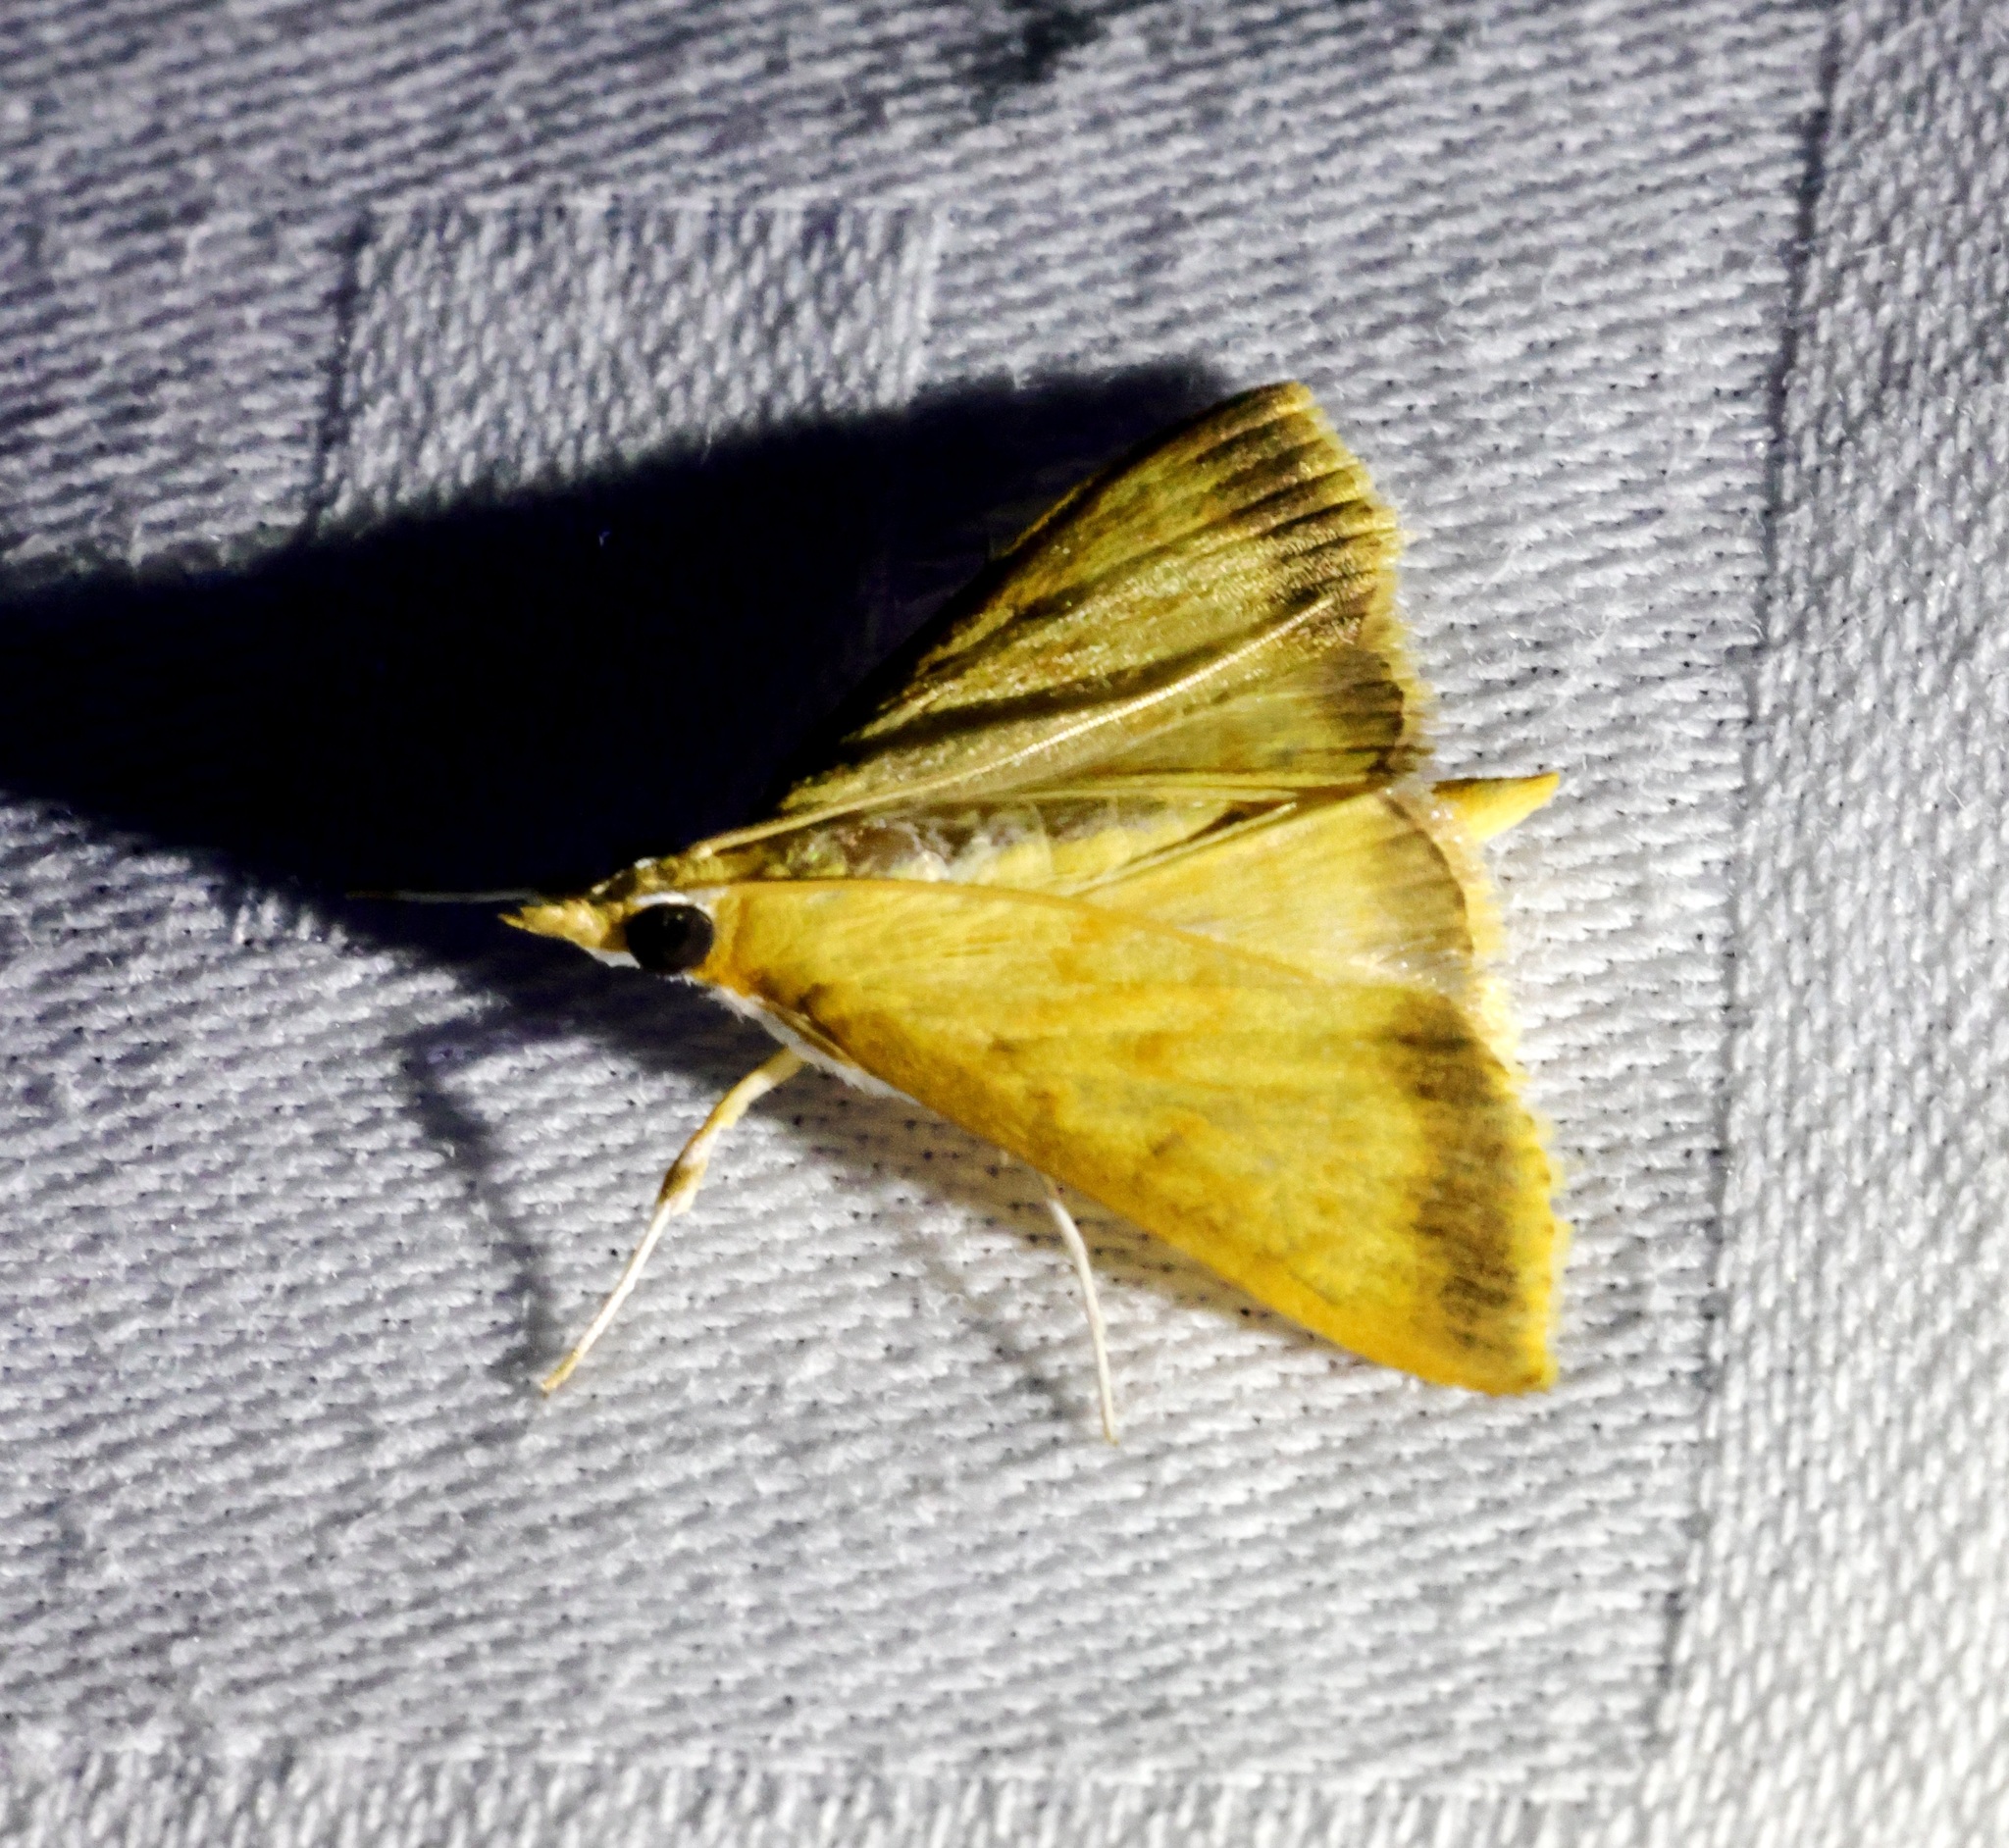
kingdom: Animalia
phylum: Arthropoda
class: Insecta
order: Lepidoptera
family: Crambidae
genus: Crocidophora
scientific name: Crocidophora habisalis
